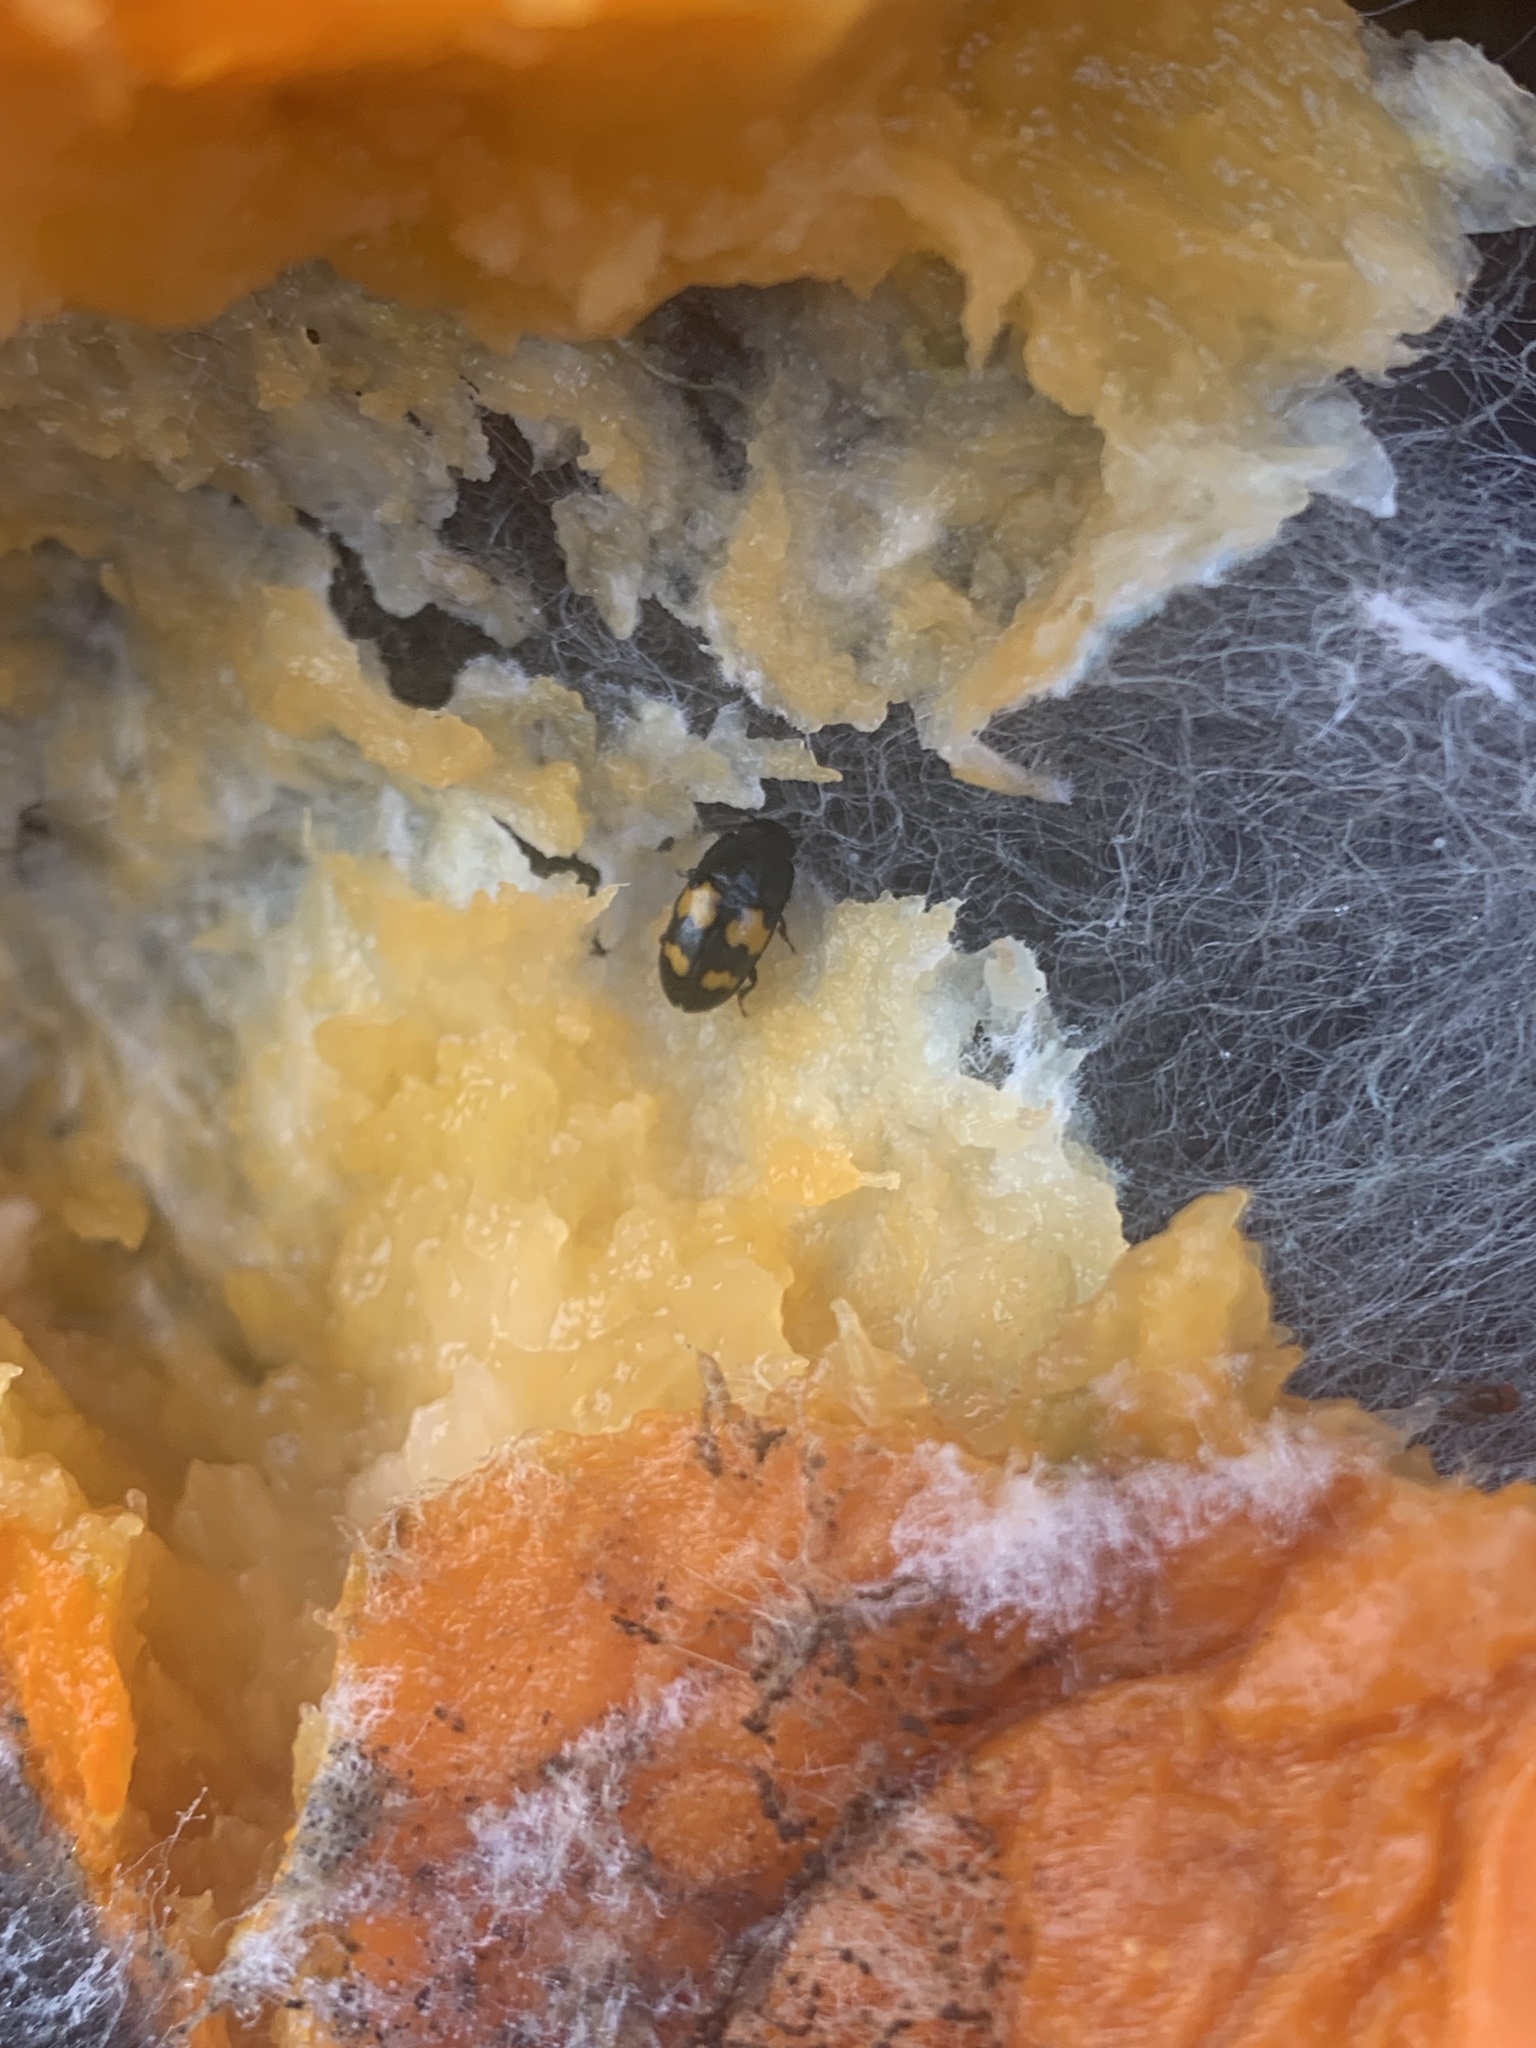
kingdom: Animalia
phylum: Arthropoda
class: Insecta
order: Coleoptera
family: Nitidulidae
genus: Glischrochilus
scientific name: Glischrochilus fasciatus
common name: Picnic beetle
